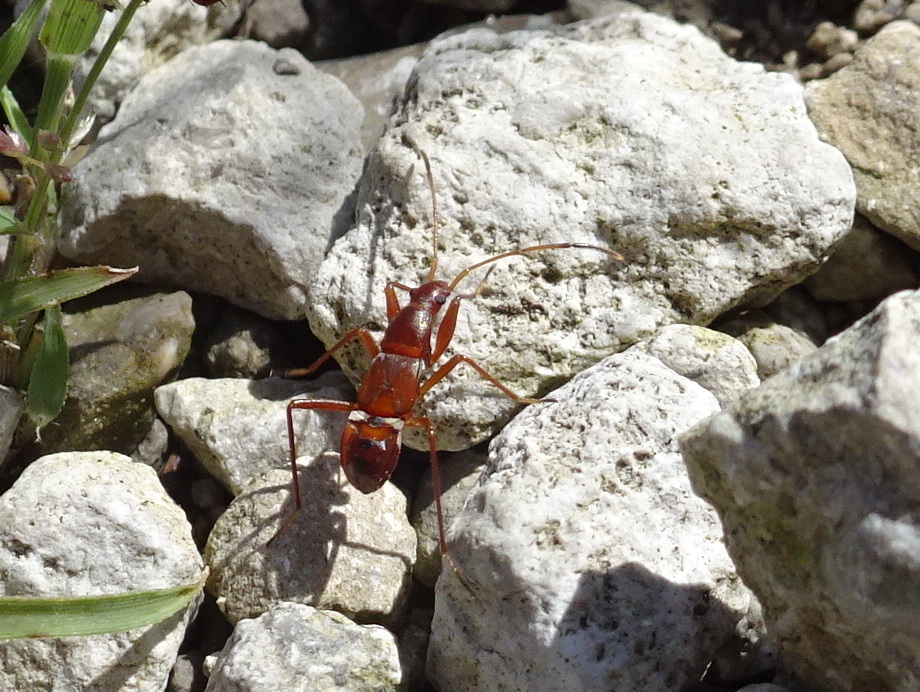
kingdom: Animalia
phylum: Arthropoda
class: Insecta
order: Hemiptera
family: Rhyparochromidae
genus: Cnemodus
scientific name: Cnemodus mavortius
